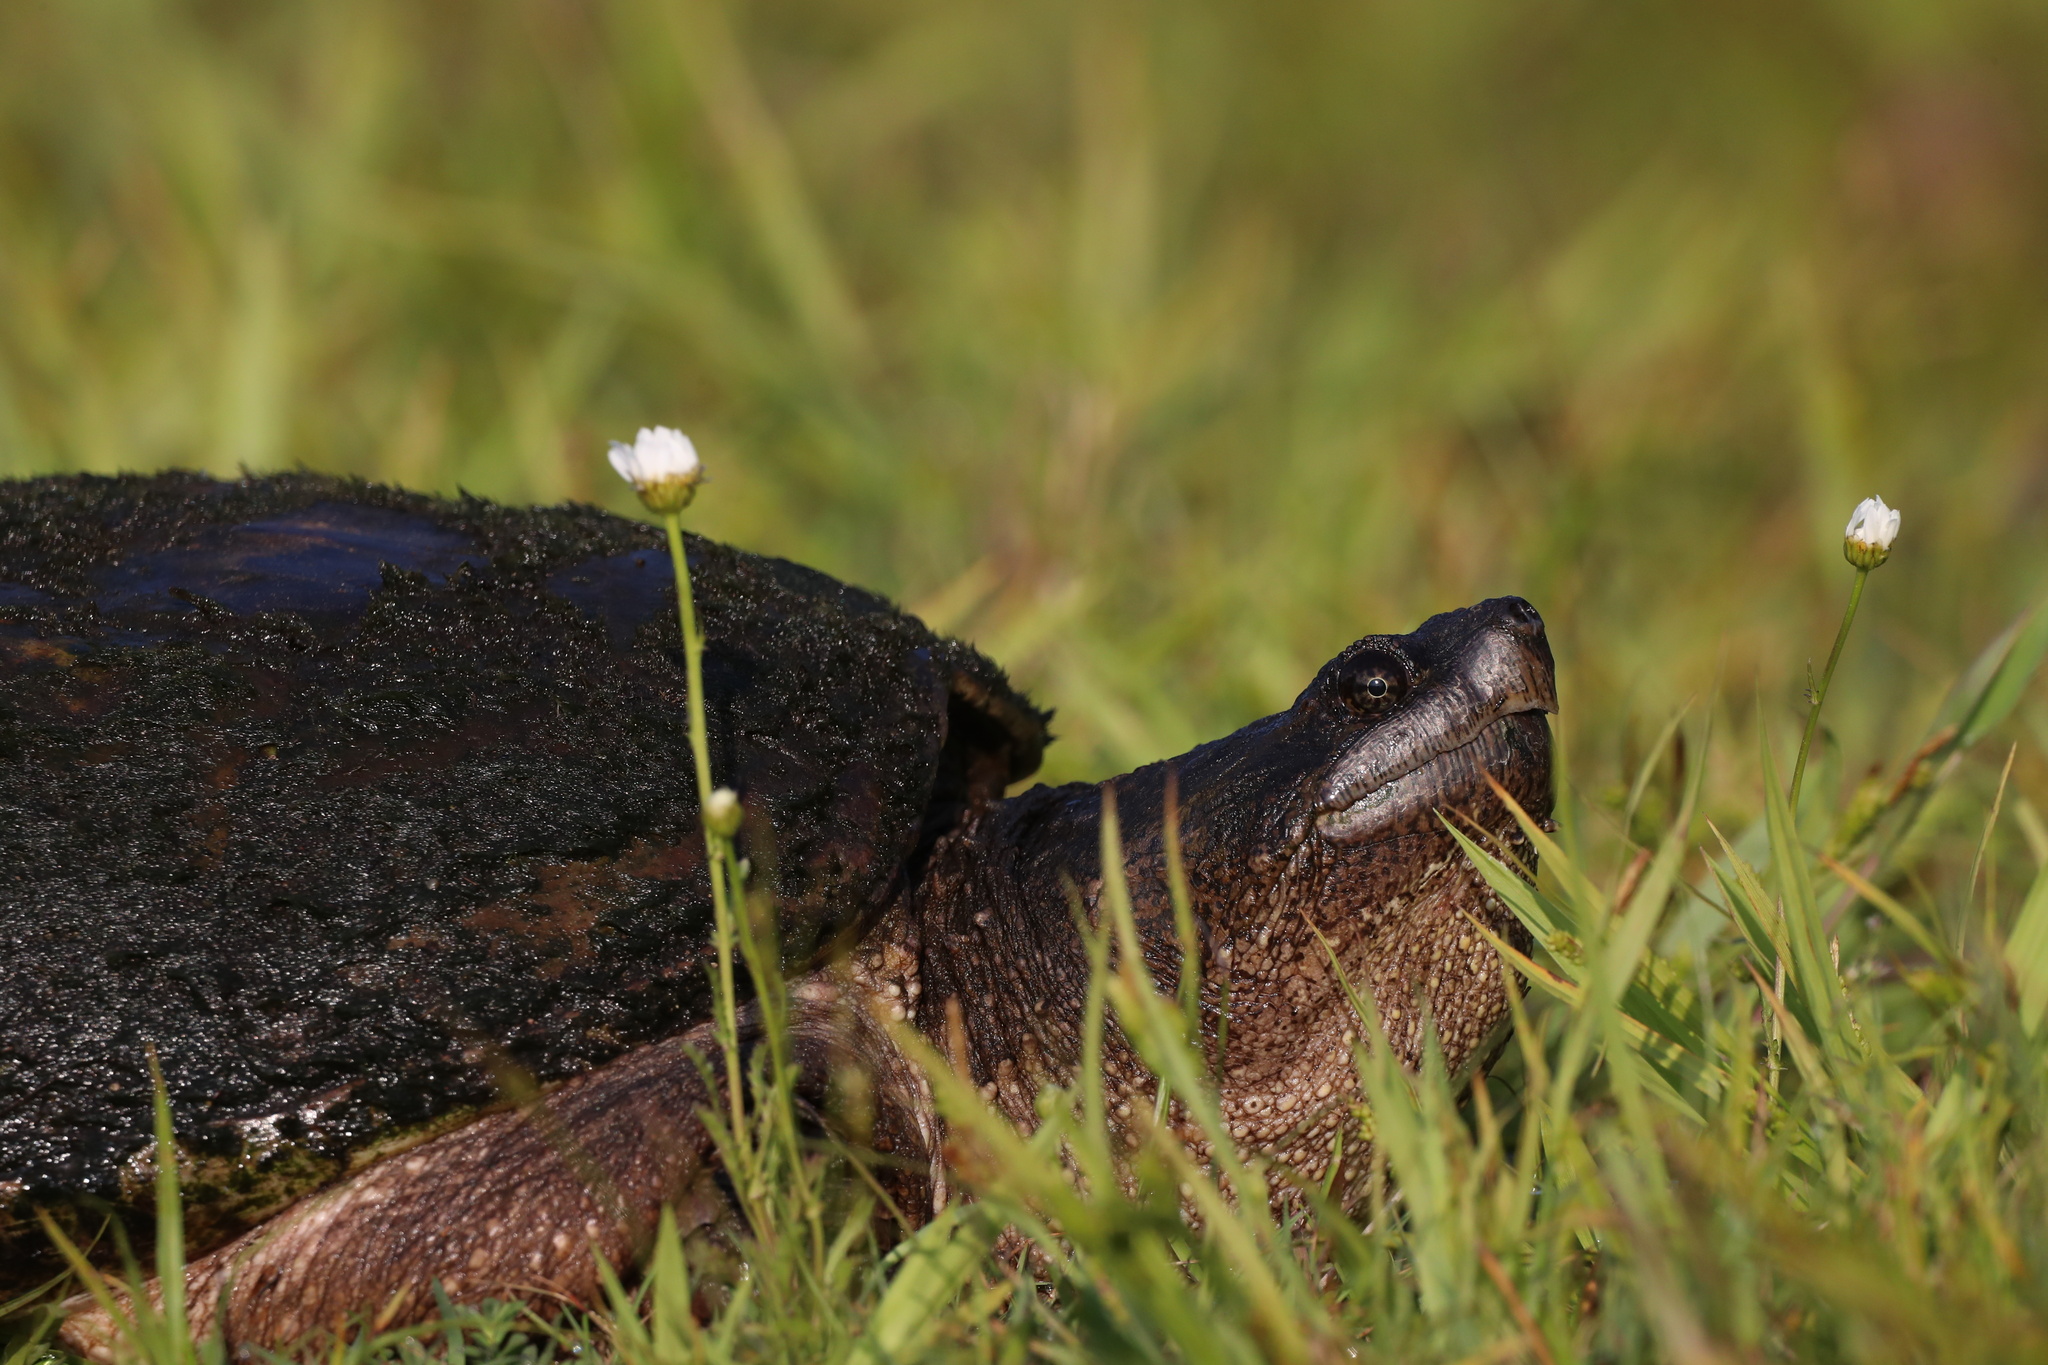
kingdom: Animalia
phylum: Chordata
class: Testudines
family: Chelydridae
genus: Chelydra
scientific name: Chelydra serpentina
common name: Common snapping turtle
